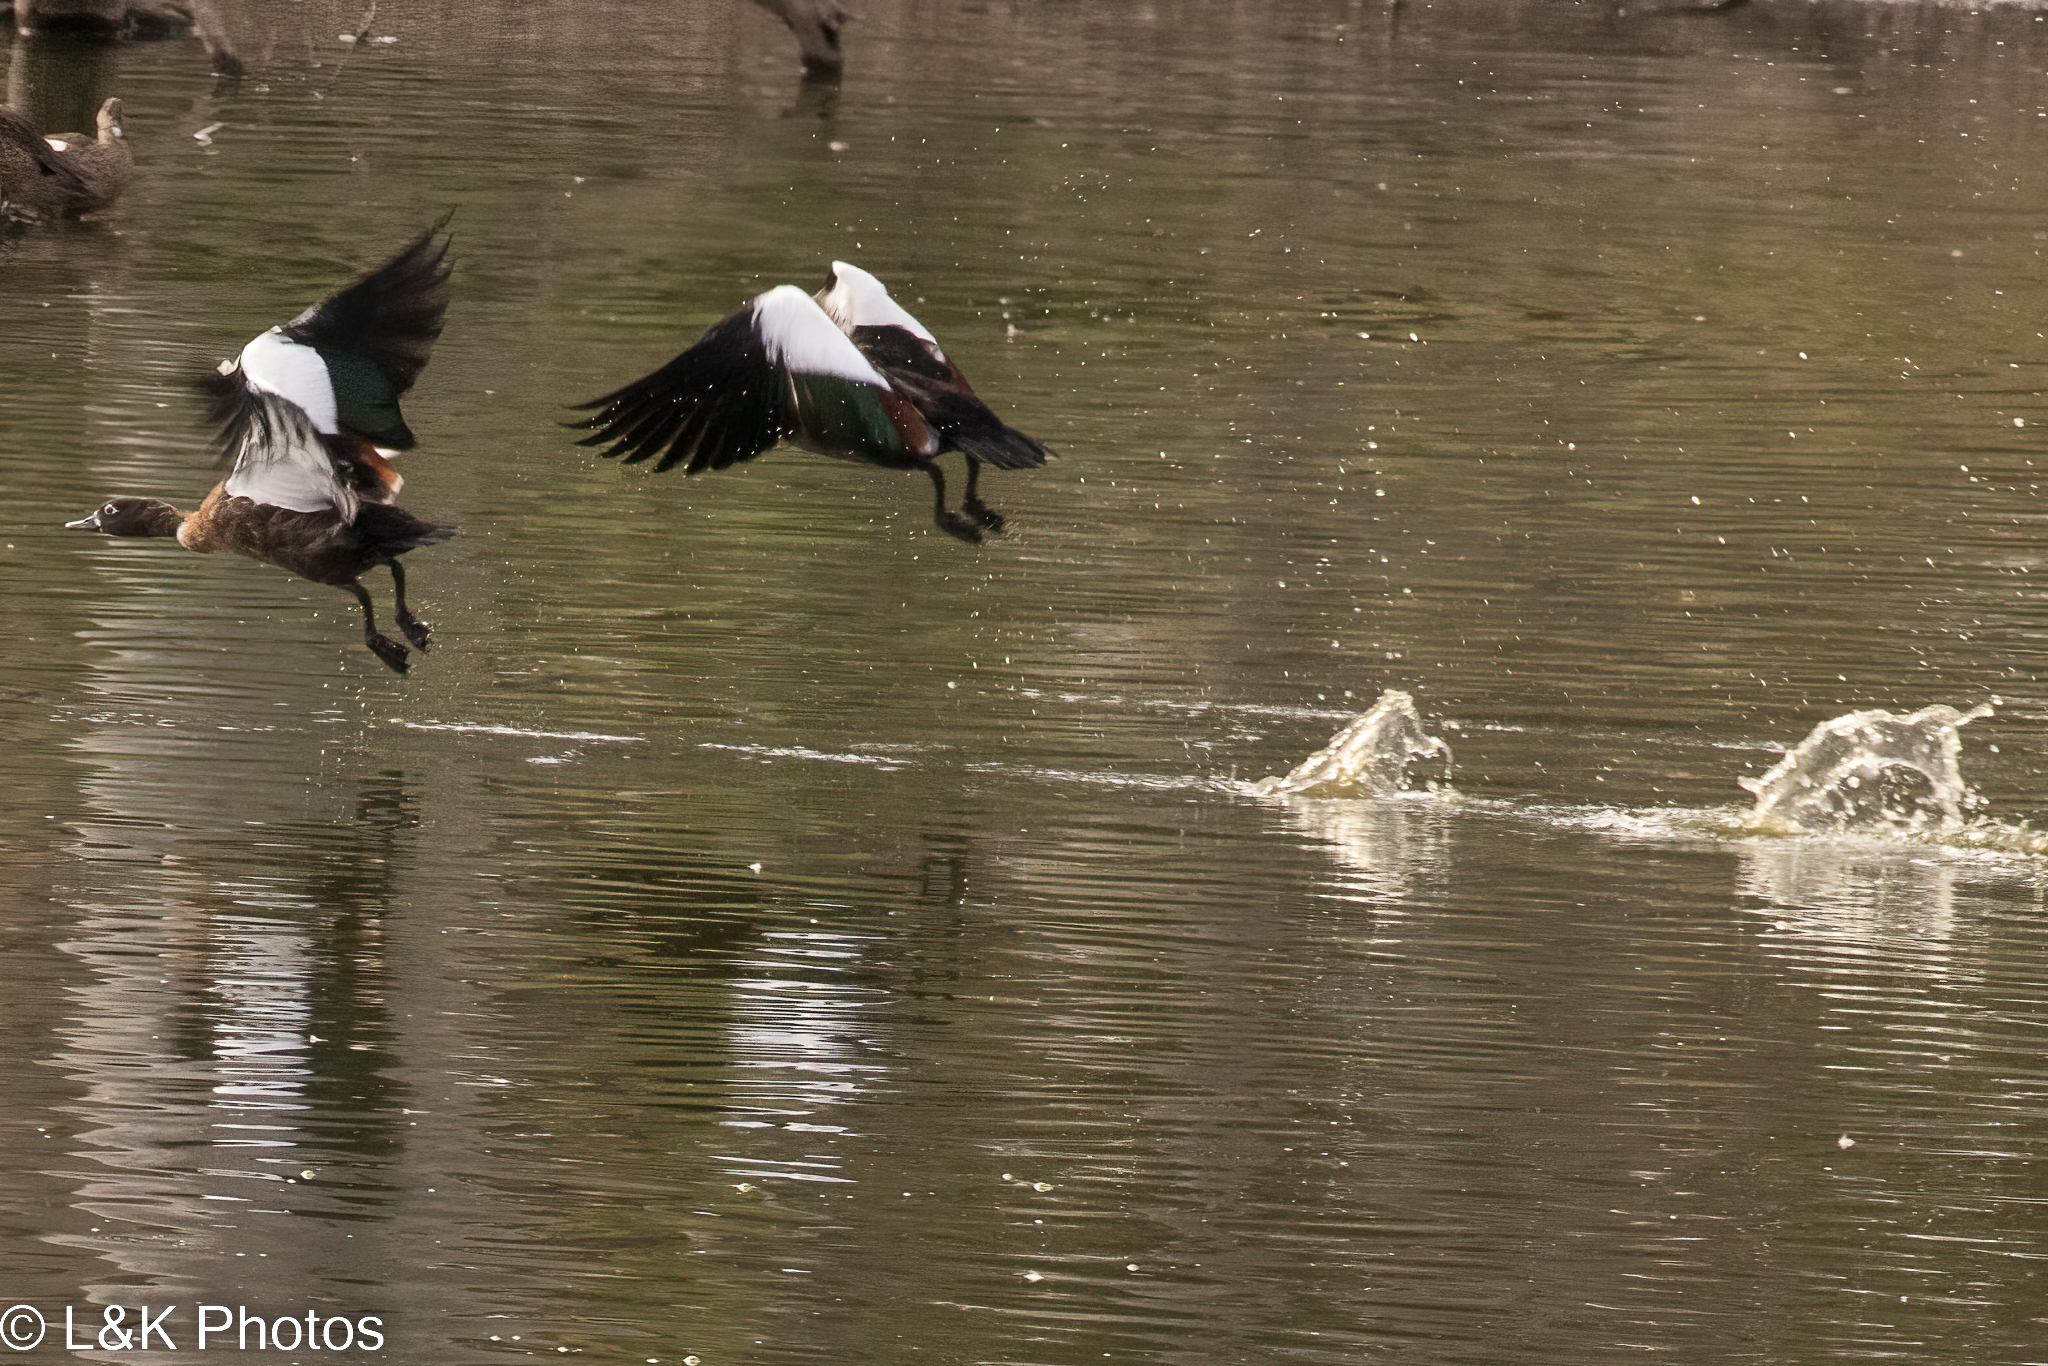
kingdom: Animalia
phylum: Chordata
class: Aves
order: Anseriformes
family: Anatidae
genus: Tadorna
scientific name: Tadorna tadornoides
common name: Australian shelduck
